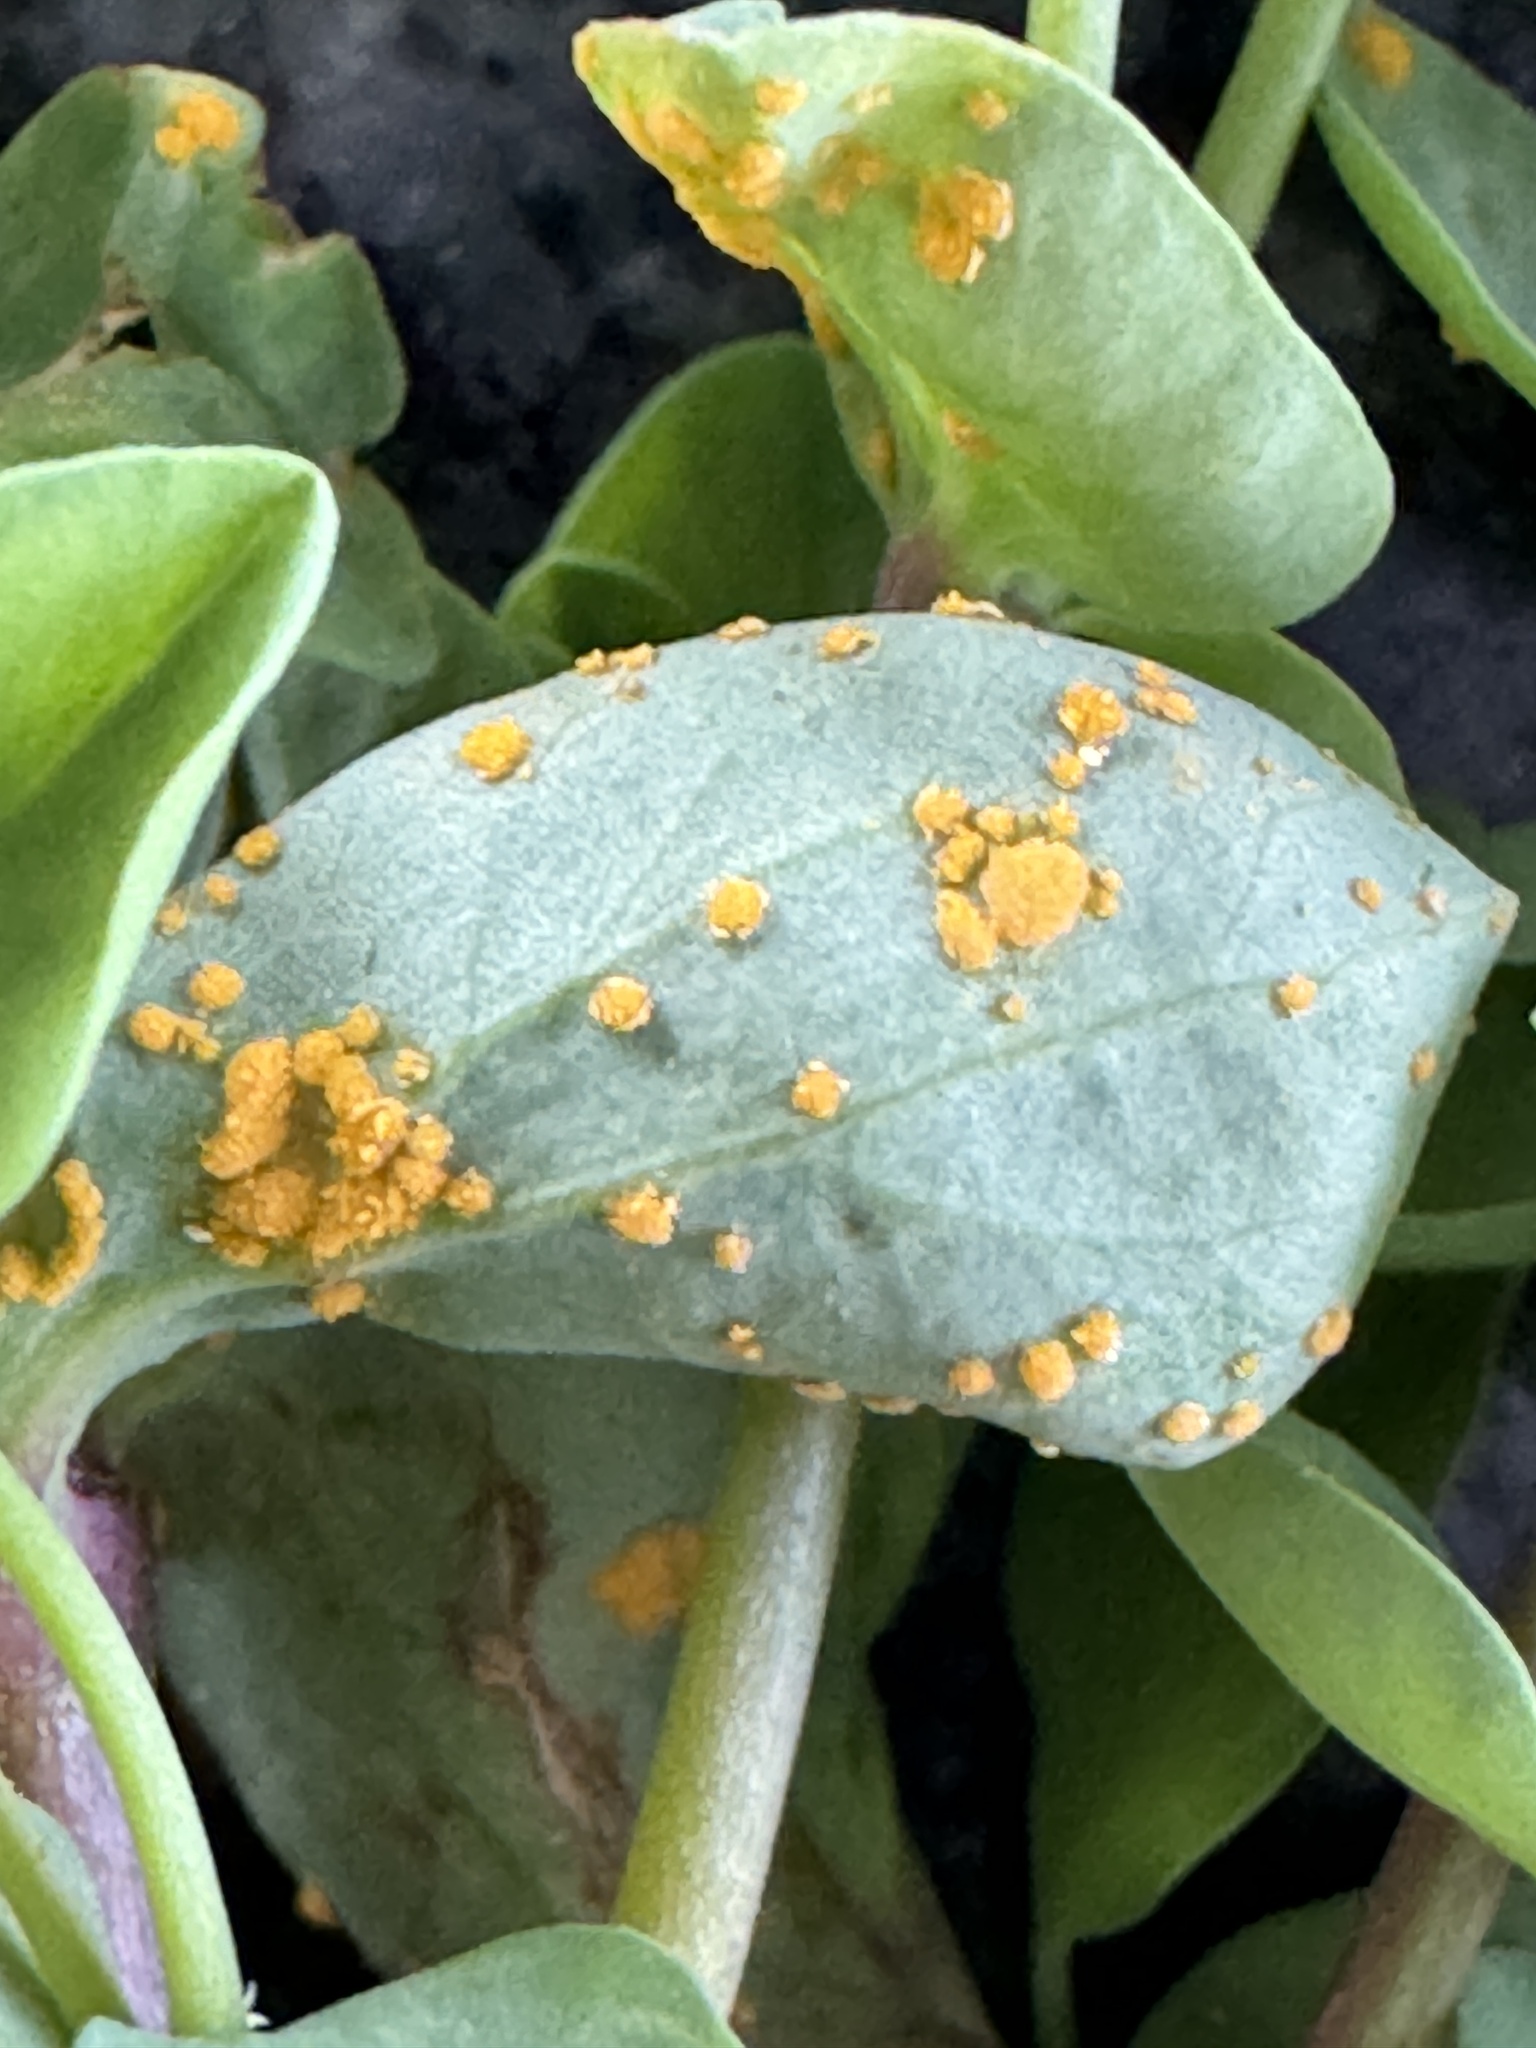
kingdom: Fungi
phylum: Basidiomycota
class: Pucciniomycetes
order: Pucciniales
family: Melampsoraceae
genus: Melampsora
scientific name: Melampsora euphorbiae
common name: Spurge rust
